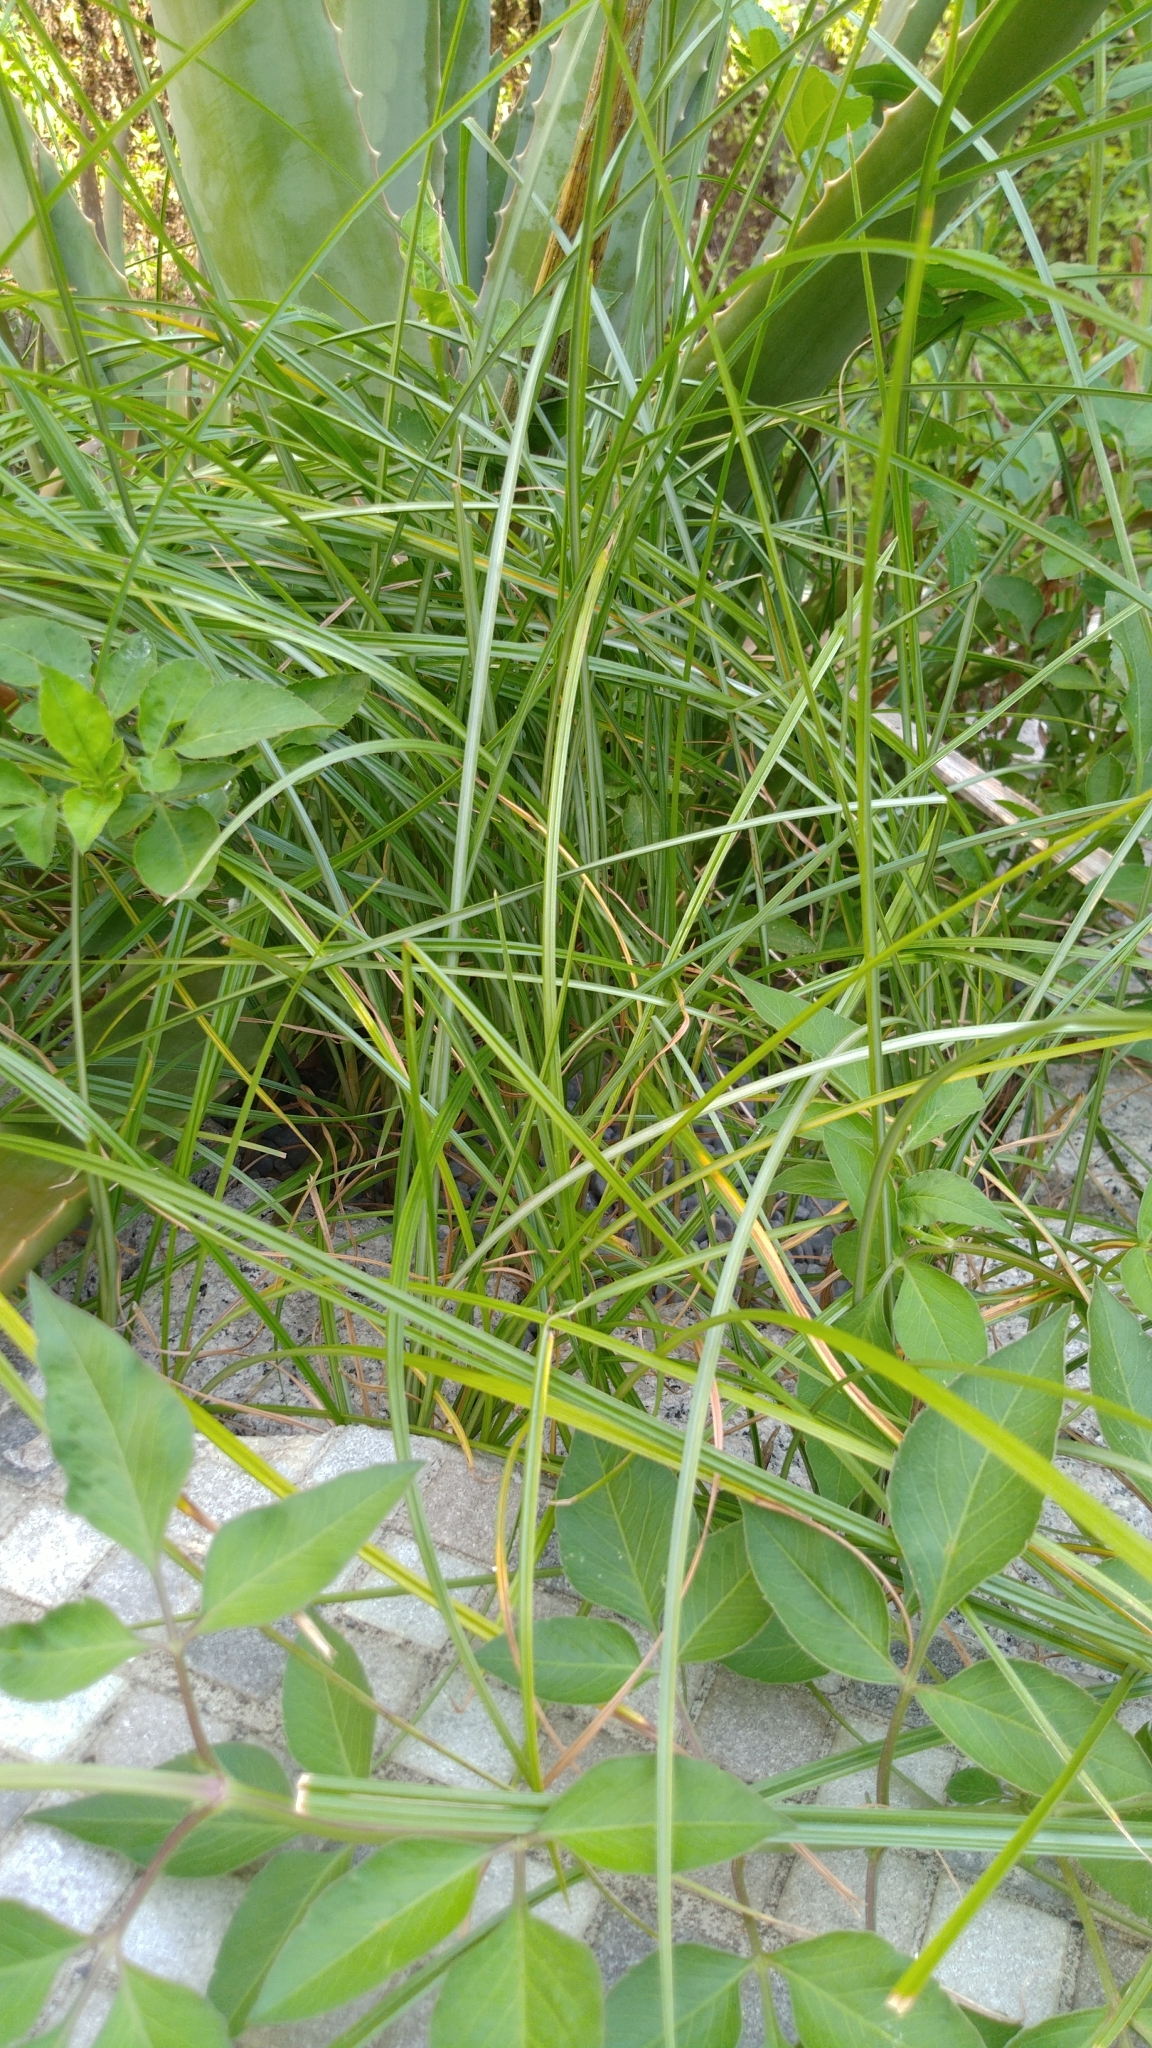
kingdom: Plantae
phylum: Tracheophyta
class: Liliopsida
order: Poales
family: Cyperaceae
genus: Cyperus
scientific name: Cyperus rotundus
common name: Nutgrass
